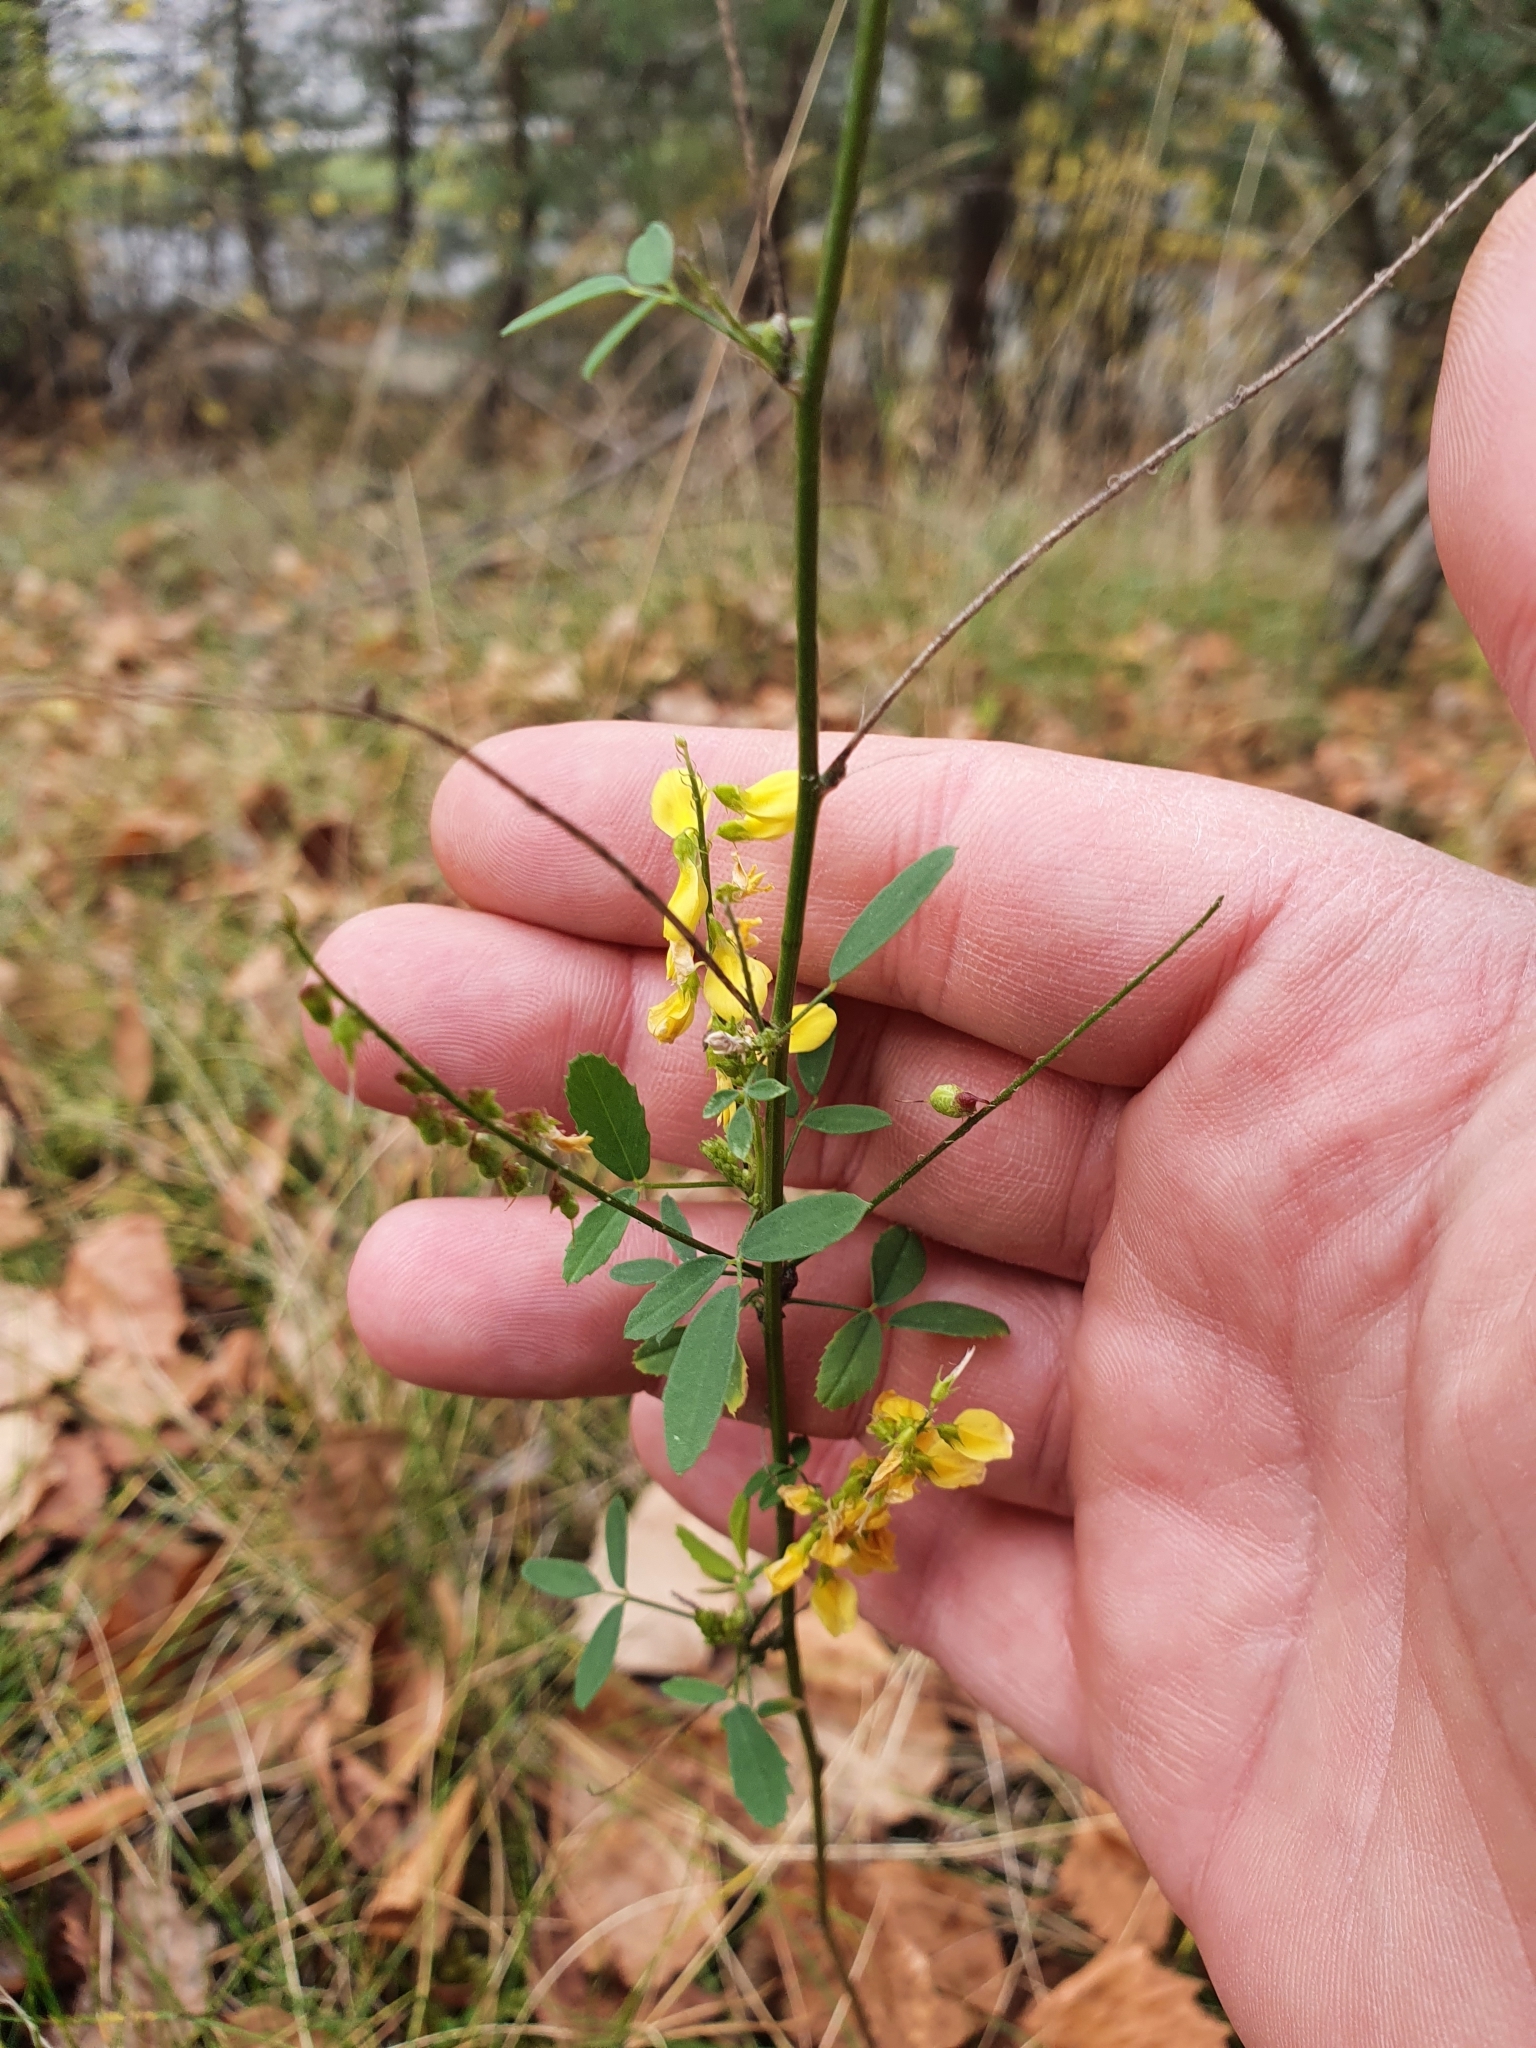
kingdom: Plantae
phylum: Tracheophyta
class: Magnoliopsida
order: Fabales
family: Fabaceae
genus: Melilotus
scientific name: Melilotus officinalis
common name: Sweetclover
